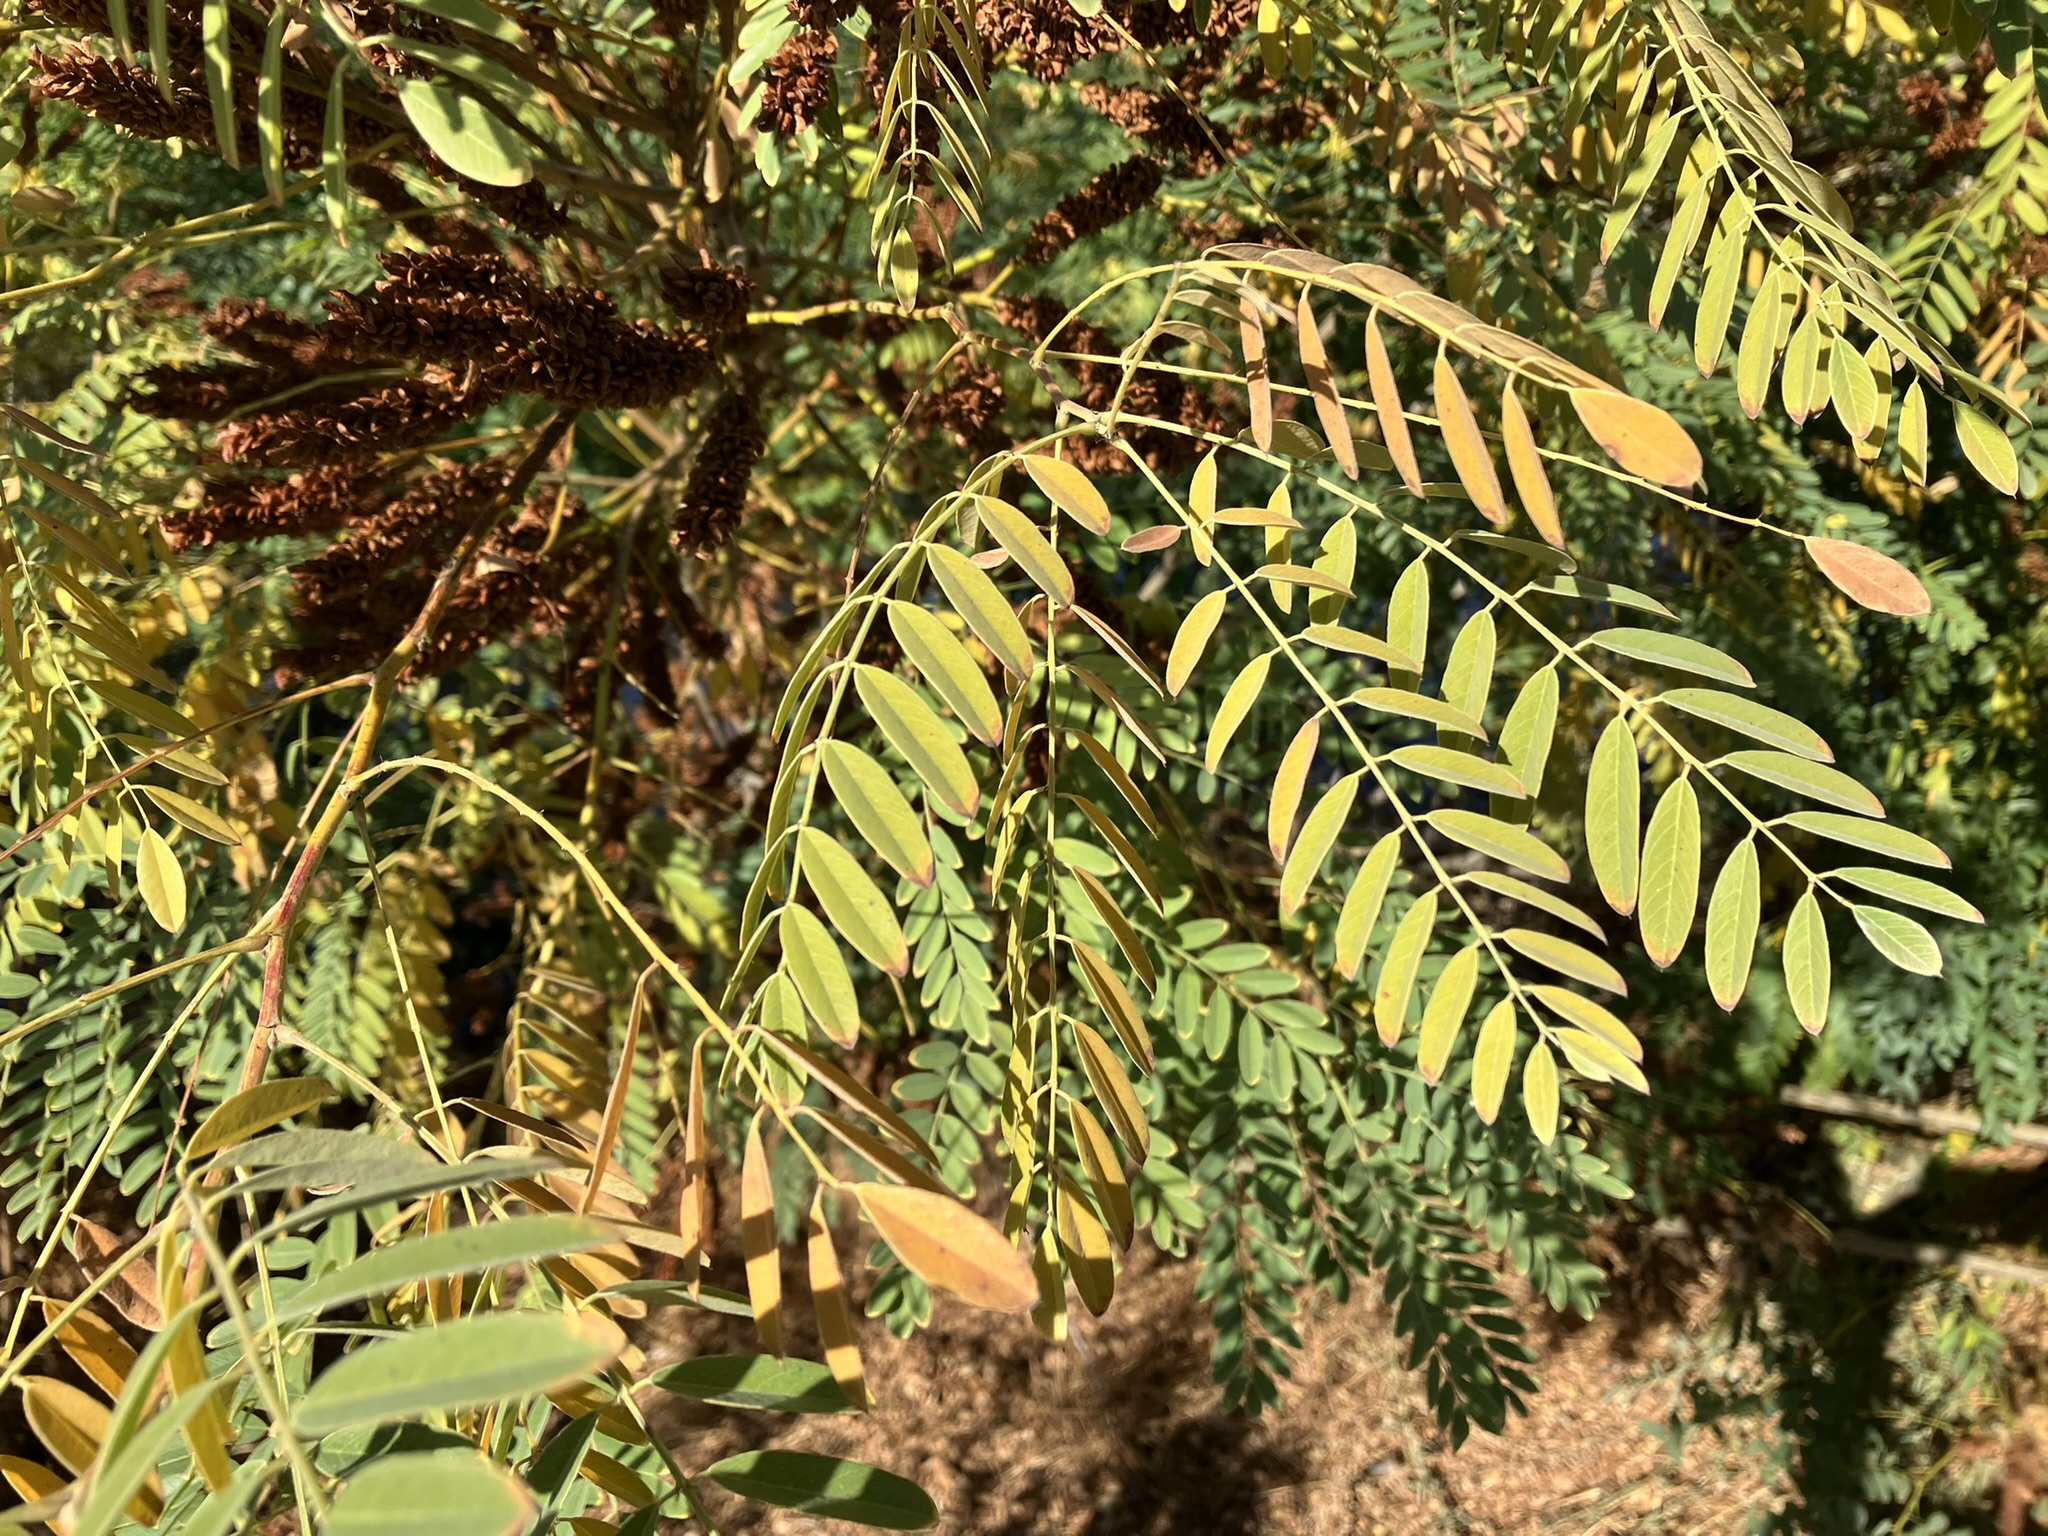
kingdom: Plantae
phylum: Tracheophyta
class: Magnoliopsida
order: Fabales
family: Fabaceae
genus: Amorpha
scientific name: Amorpha fruticosa
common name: False indigo
